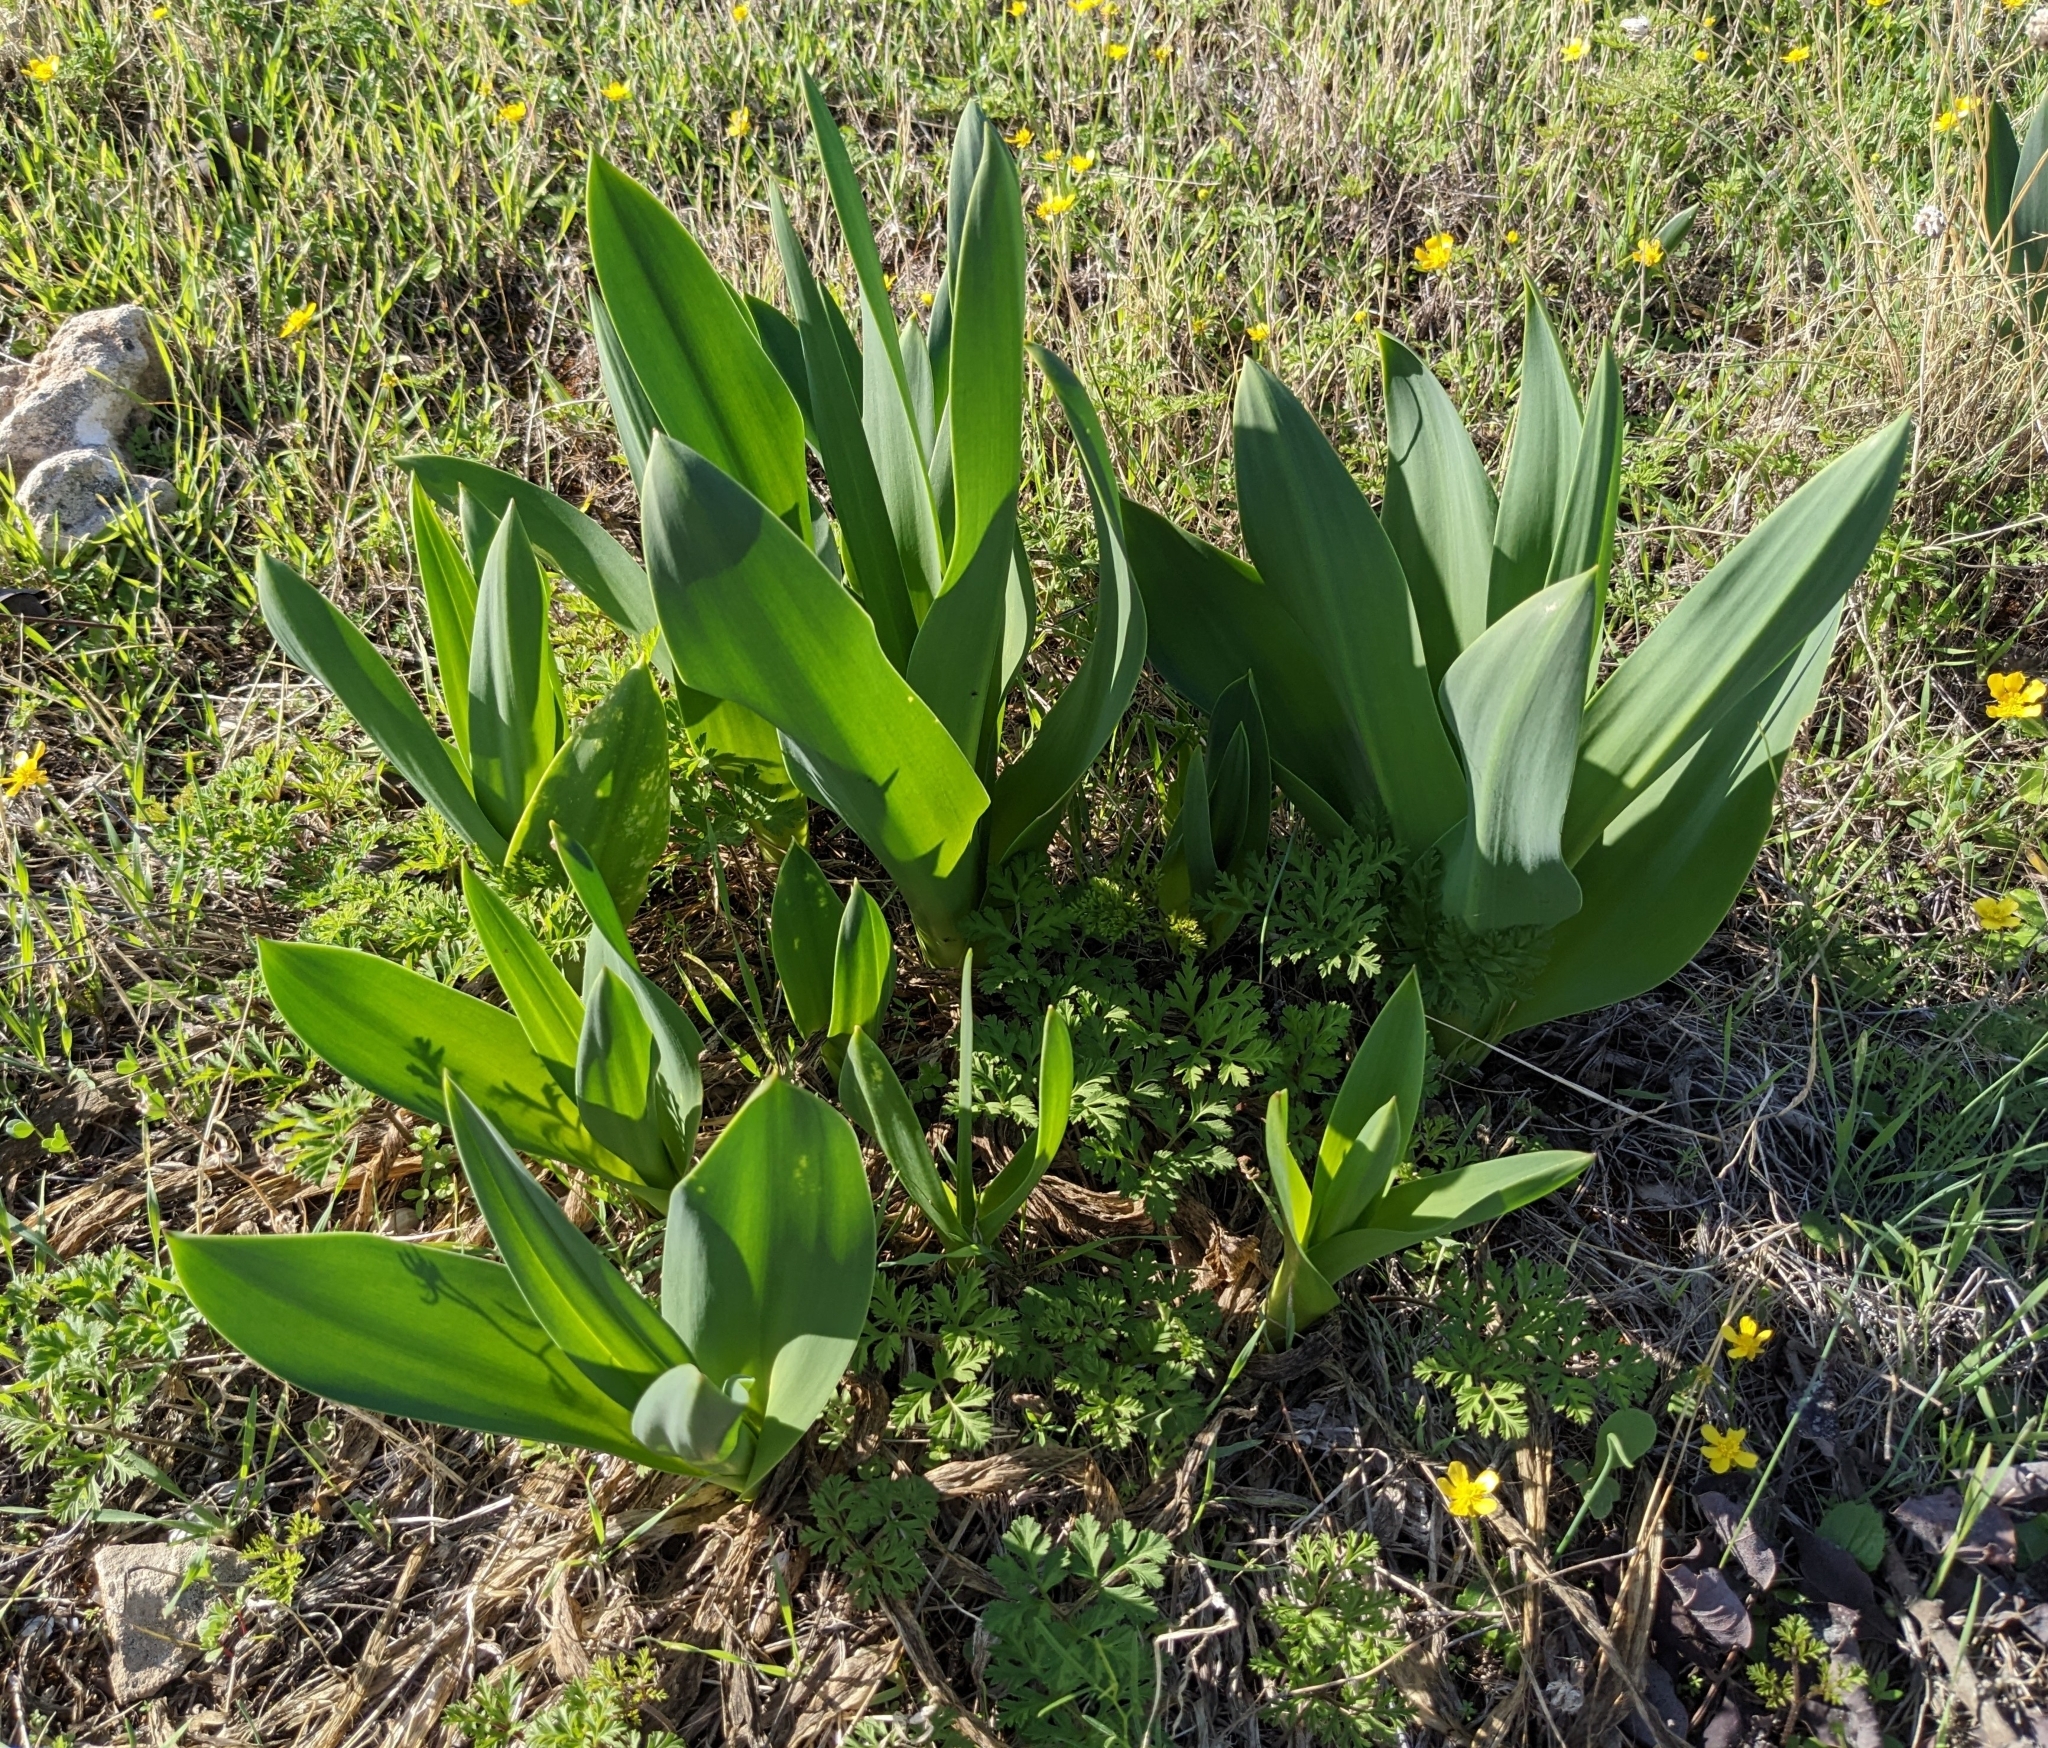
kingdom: Plantae
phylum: Tracheophyta
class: Liliopsida
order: Asparagales
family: Asparagaceae
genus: Drimia
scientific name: Drimia aphylla
